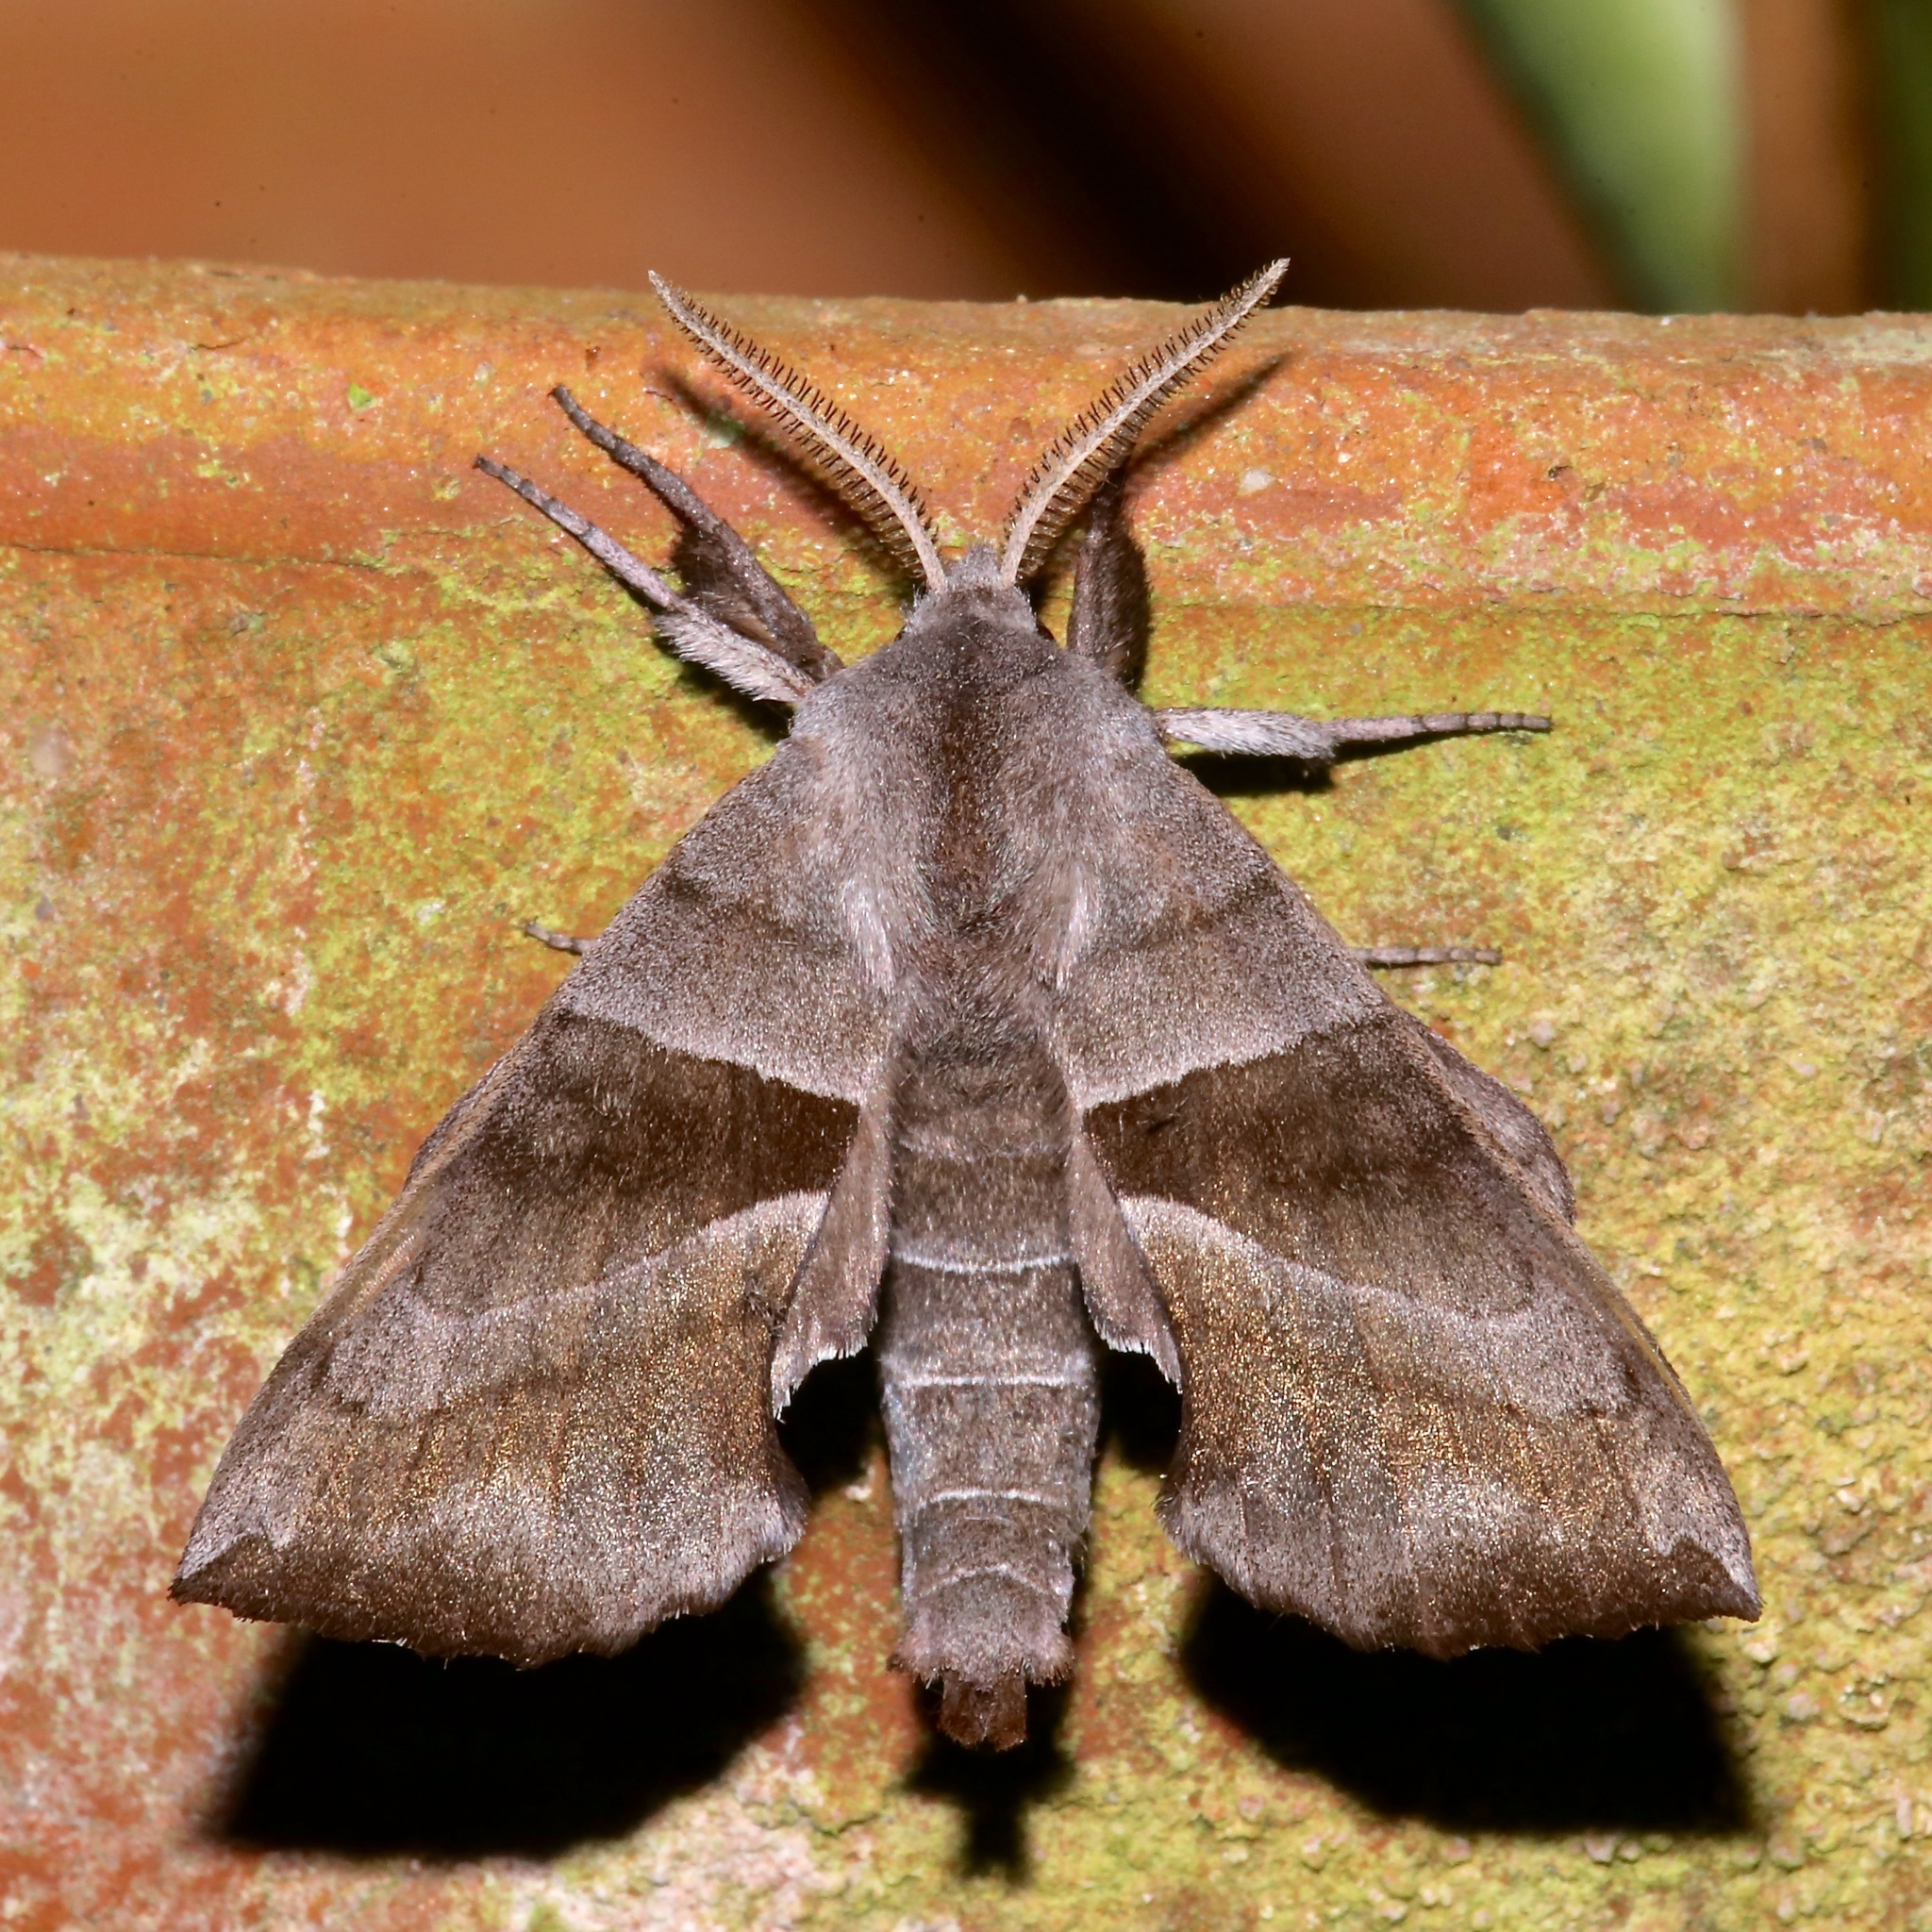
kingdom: Animalia
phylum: Arthropoda
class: Insecta
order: Lepidoptera
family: Sphingidae
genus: Amorpha
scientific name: Amorpha juglandis
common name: Walnut sphinx
